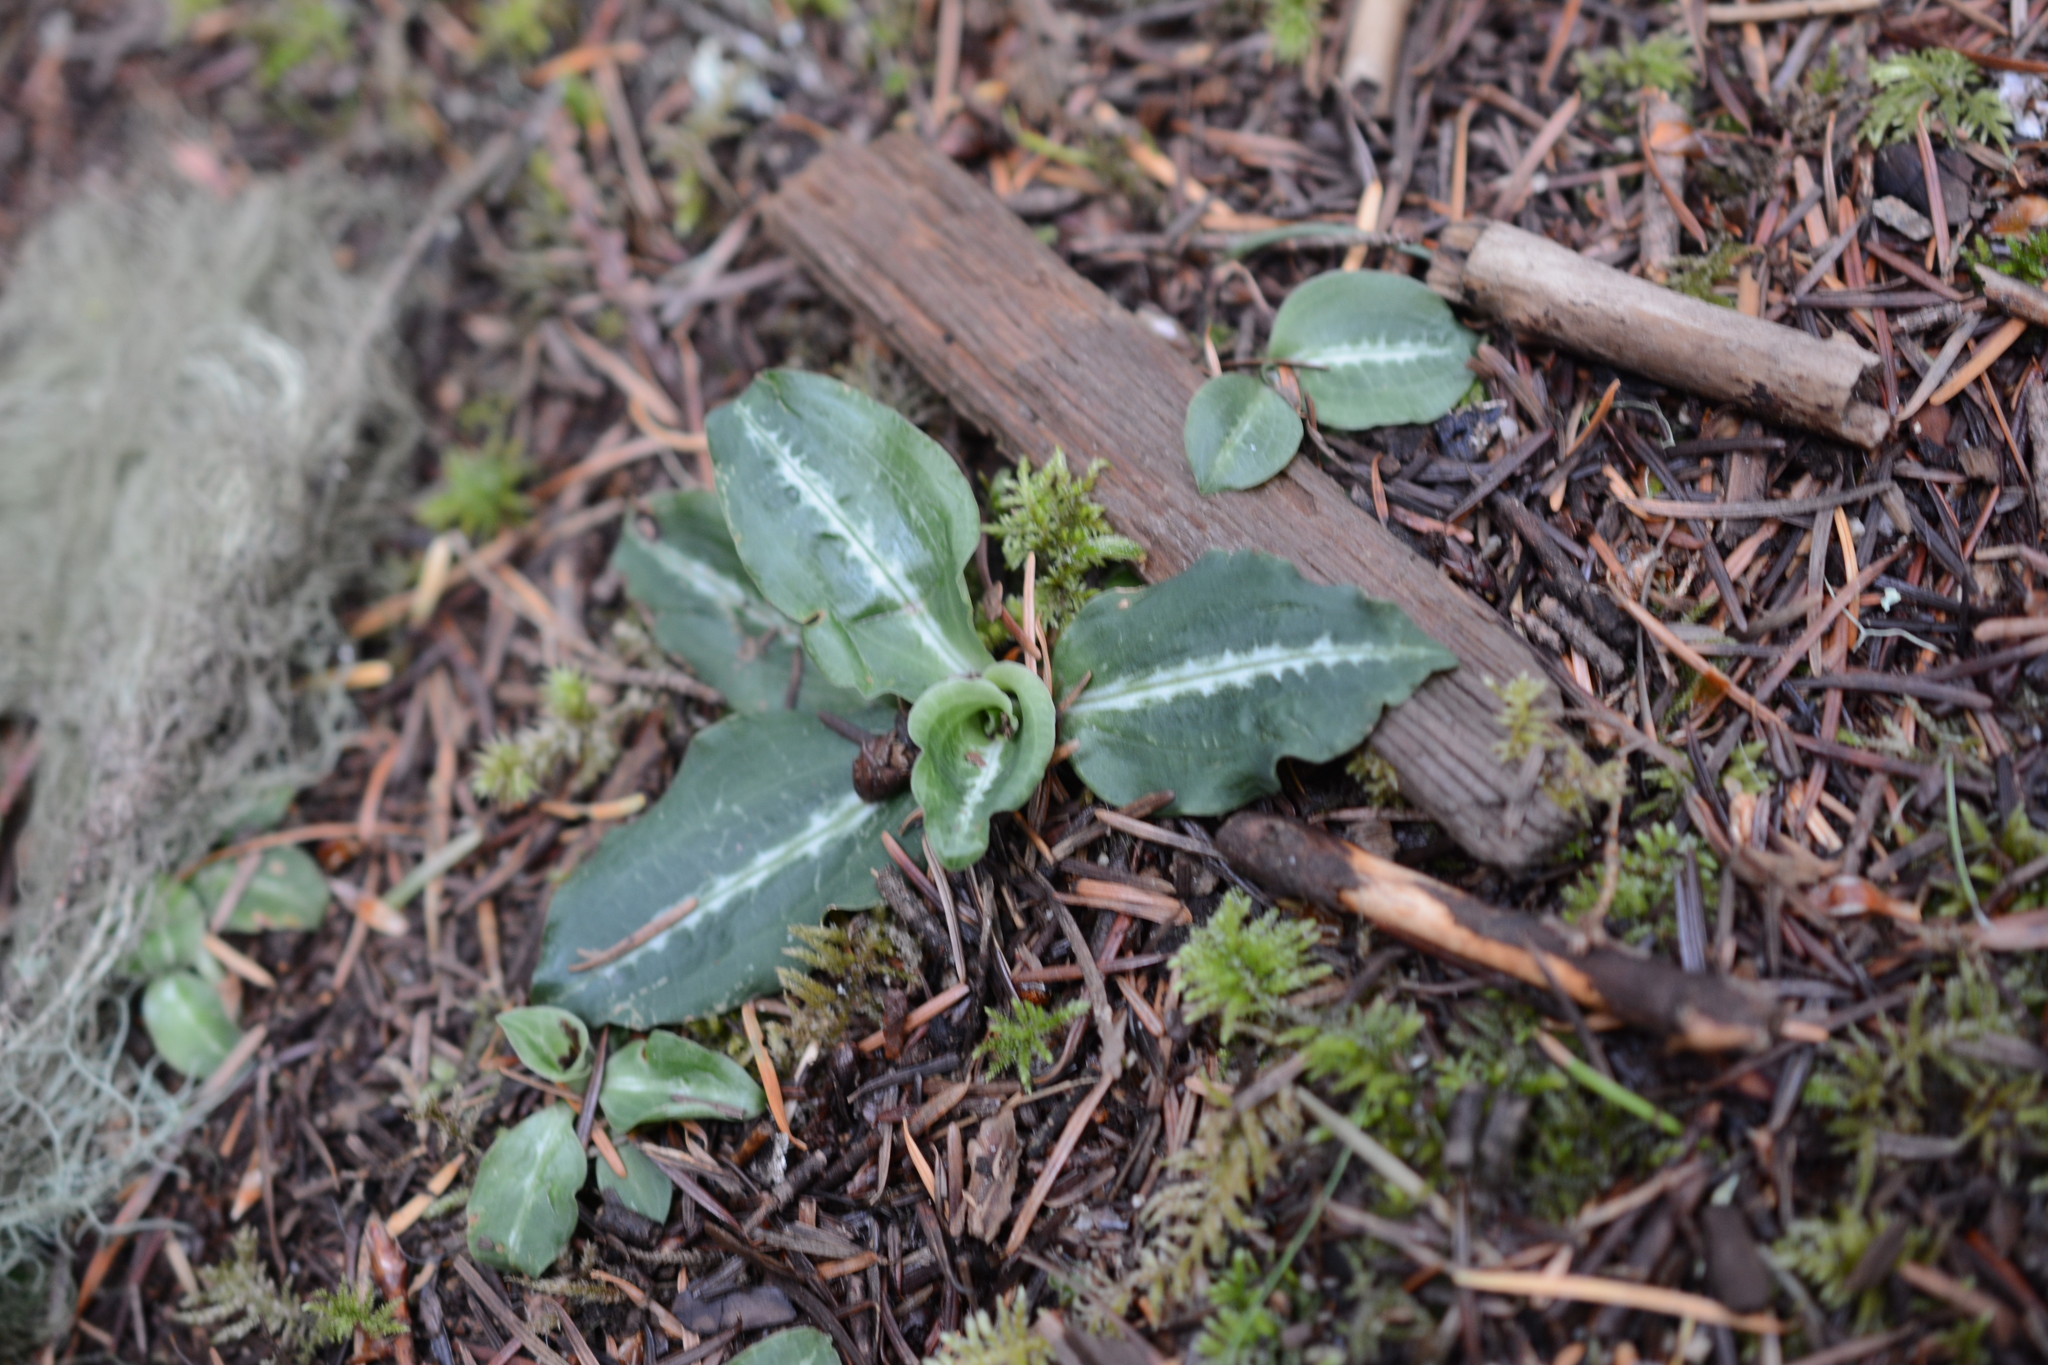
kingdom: Plantae
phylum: Tracheophyta
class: Liliopsida
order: Asparagales
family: Orchidaceae
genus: Goodyera
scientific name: Goodyera oblongifolia
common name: Giant rattlesnake-plantain
